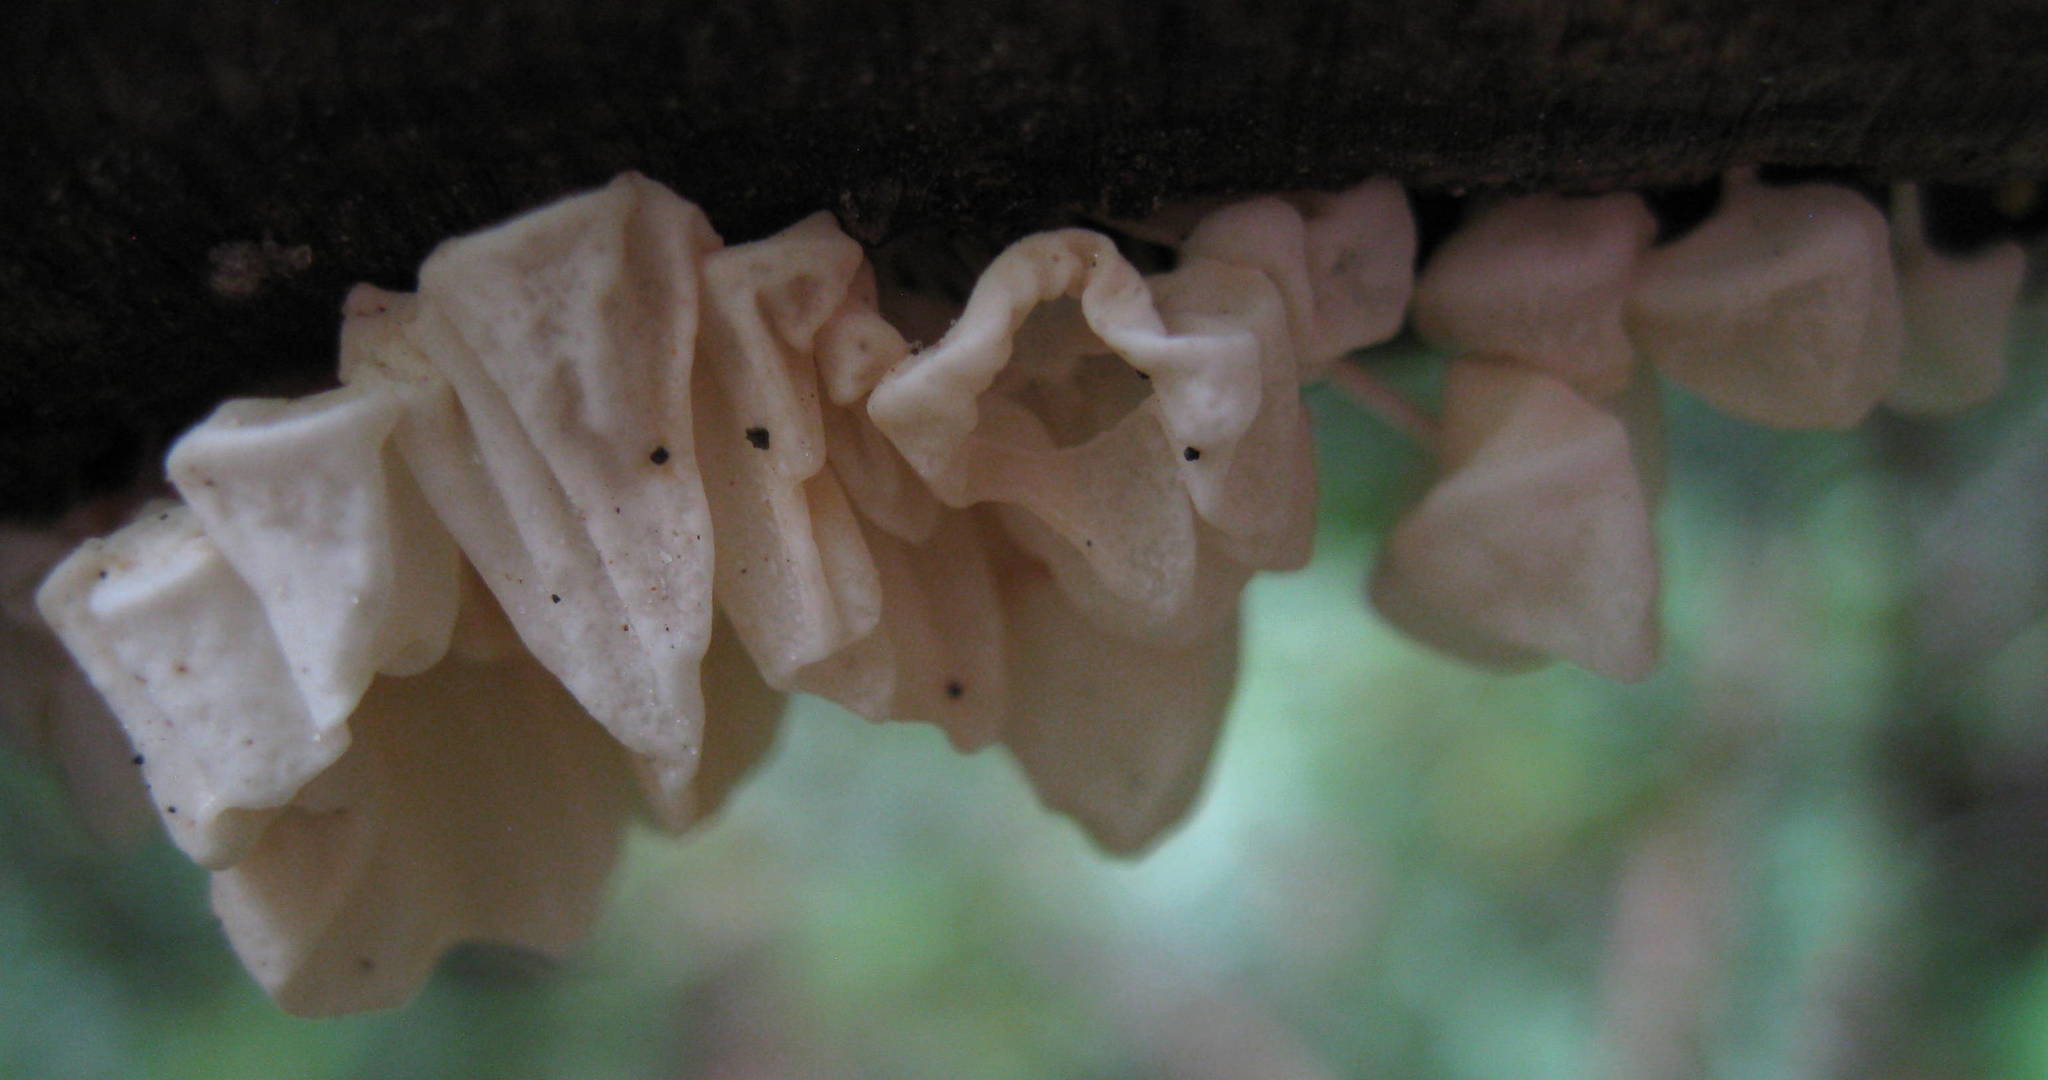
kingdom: Fungi
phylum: Basidiomycota
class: Agaricomycetes
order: Agaricales
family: Physalacriaceae
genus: Physalacria
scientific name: Physalacria inflata
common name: Bladder stalks
